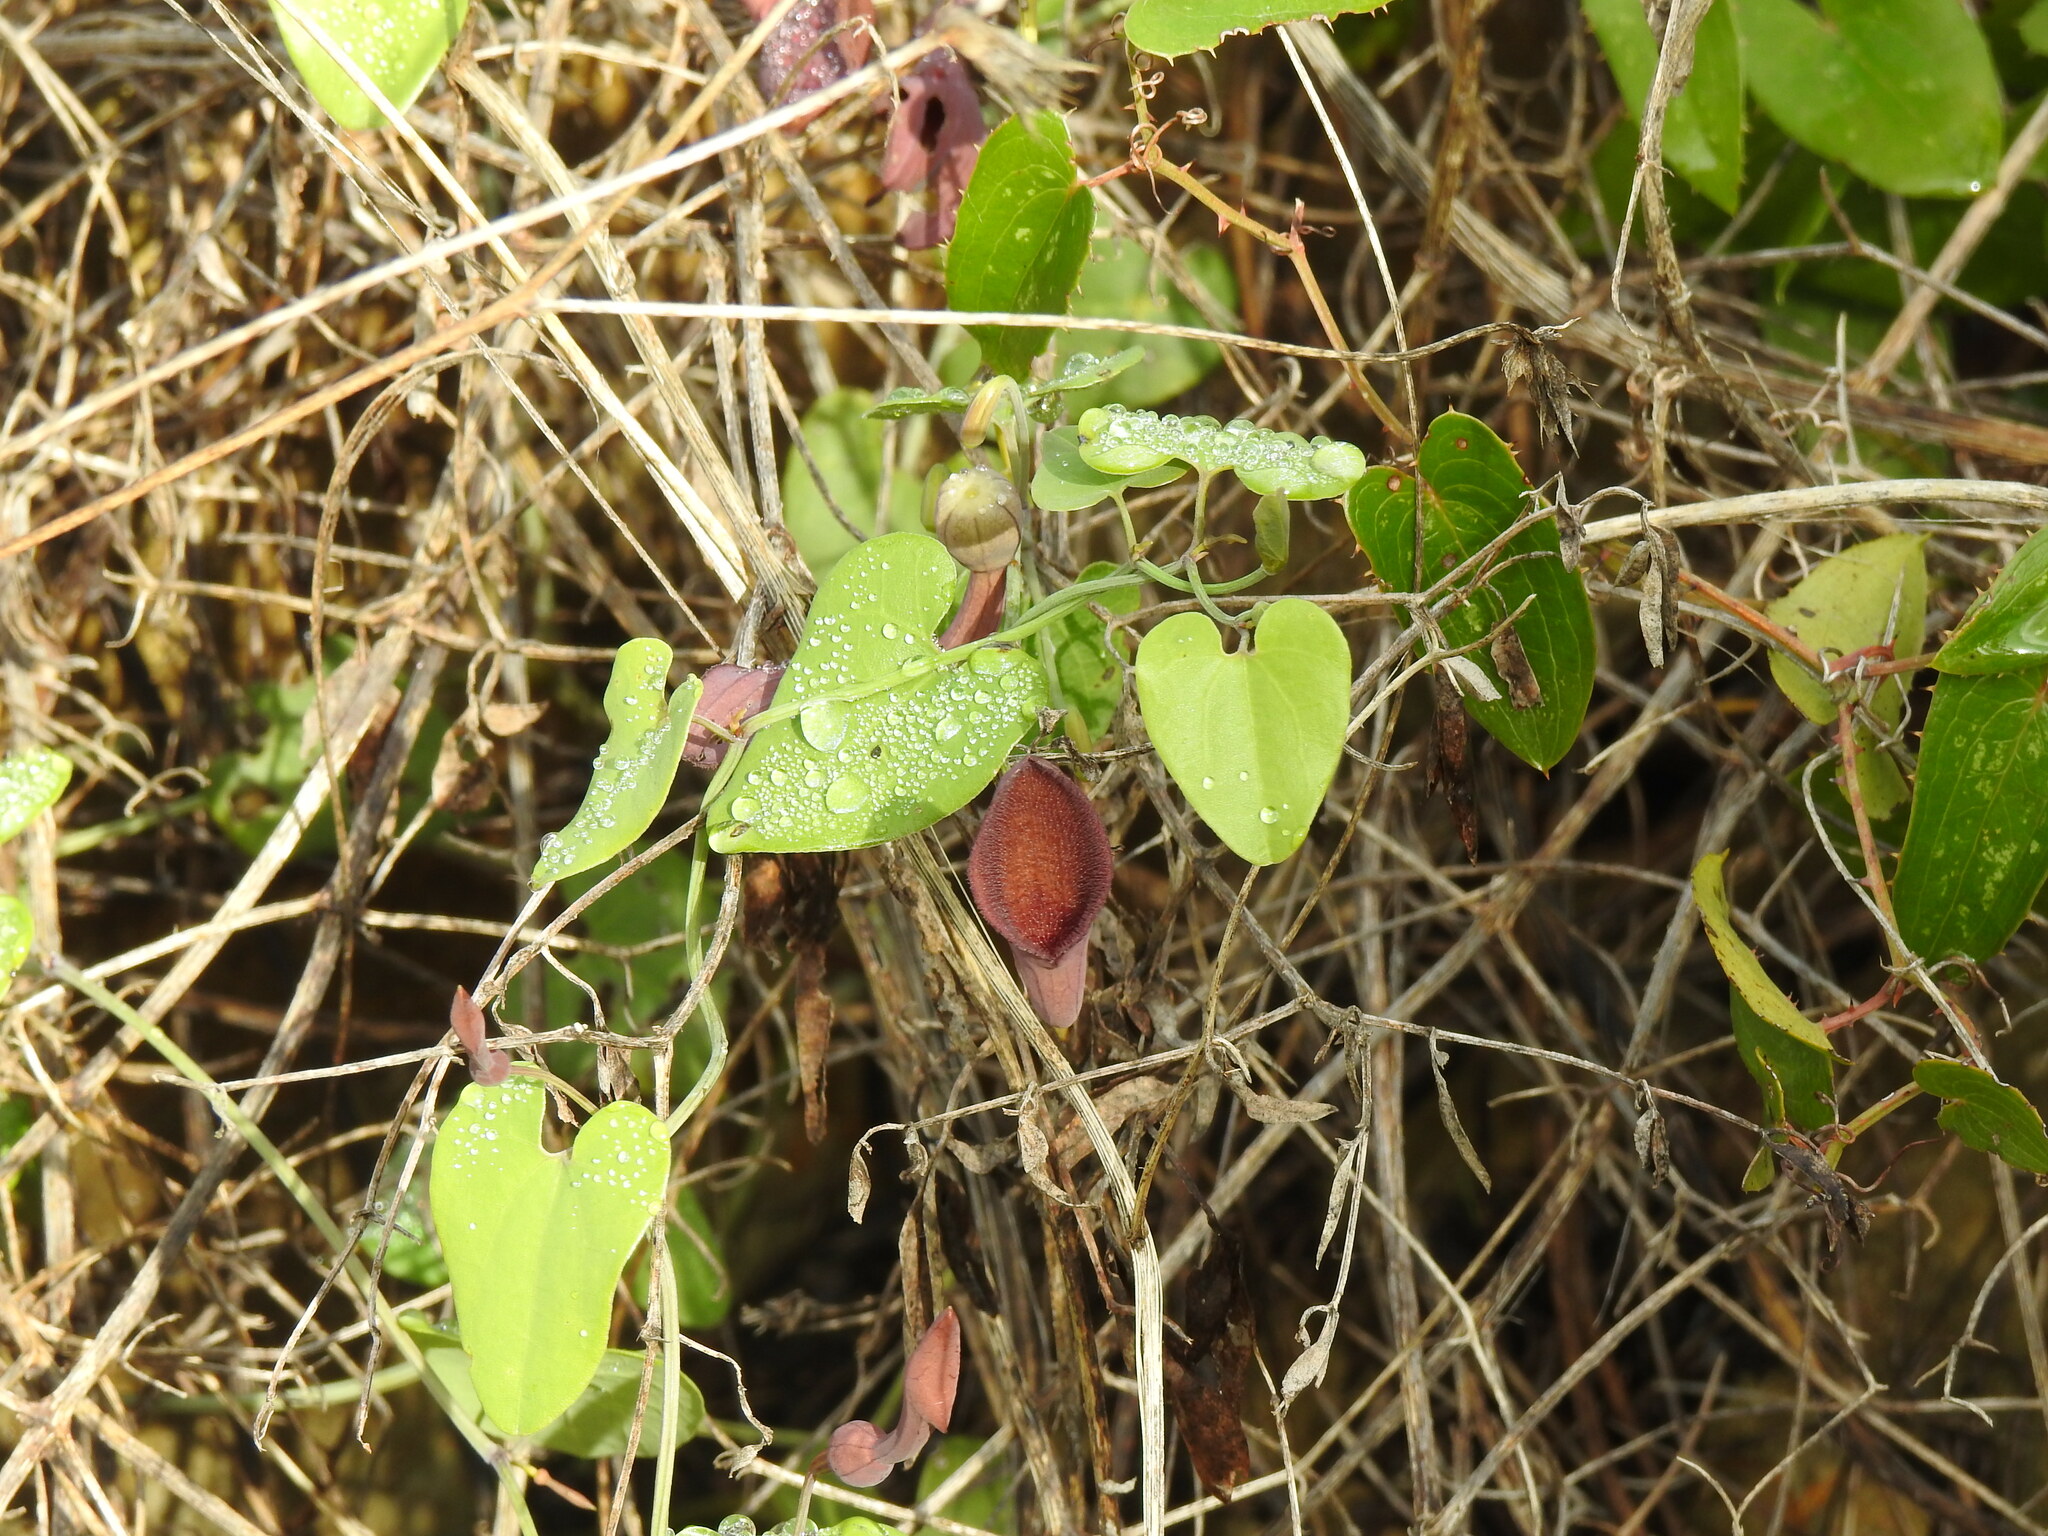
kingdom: Plantae
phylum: Tracheophyta
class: Magnoliopsida
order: Piperales
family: Aristolochiaceae
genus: Aristolochia
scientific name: Aristolochia baetica
